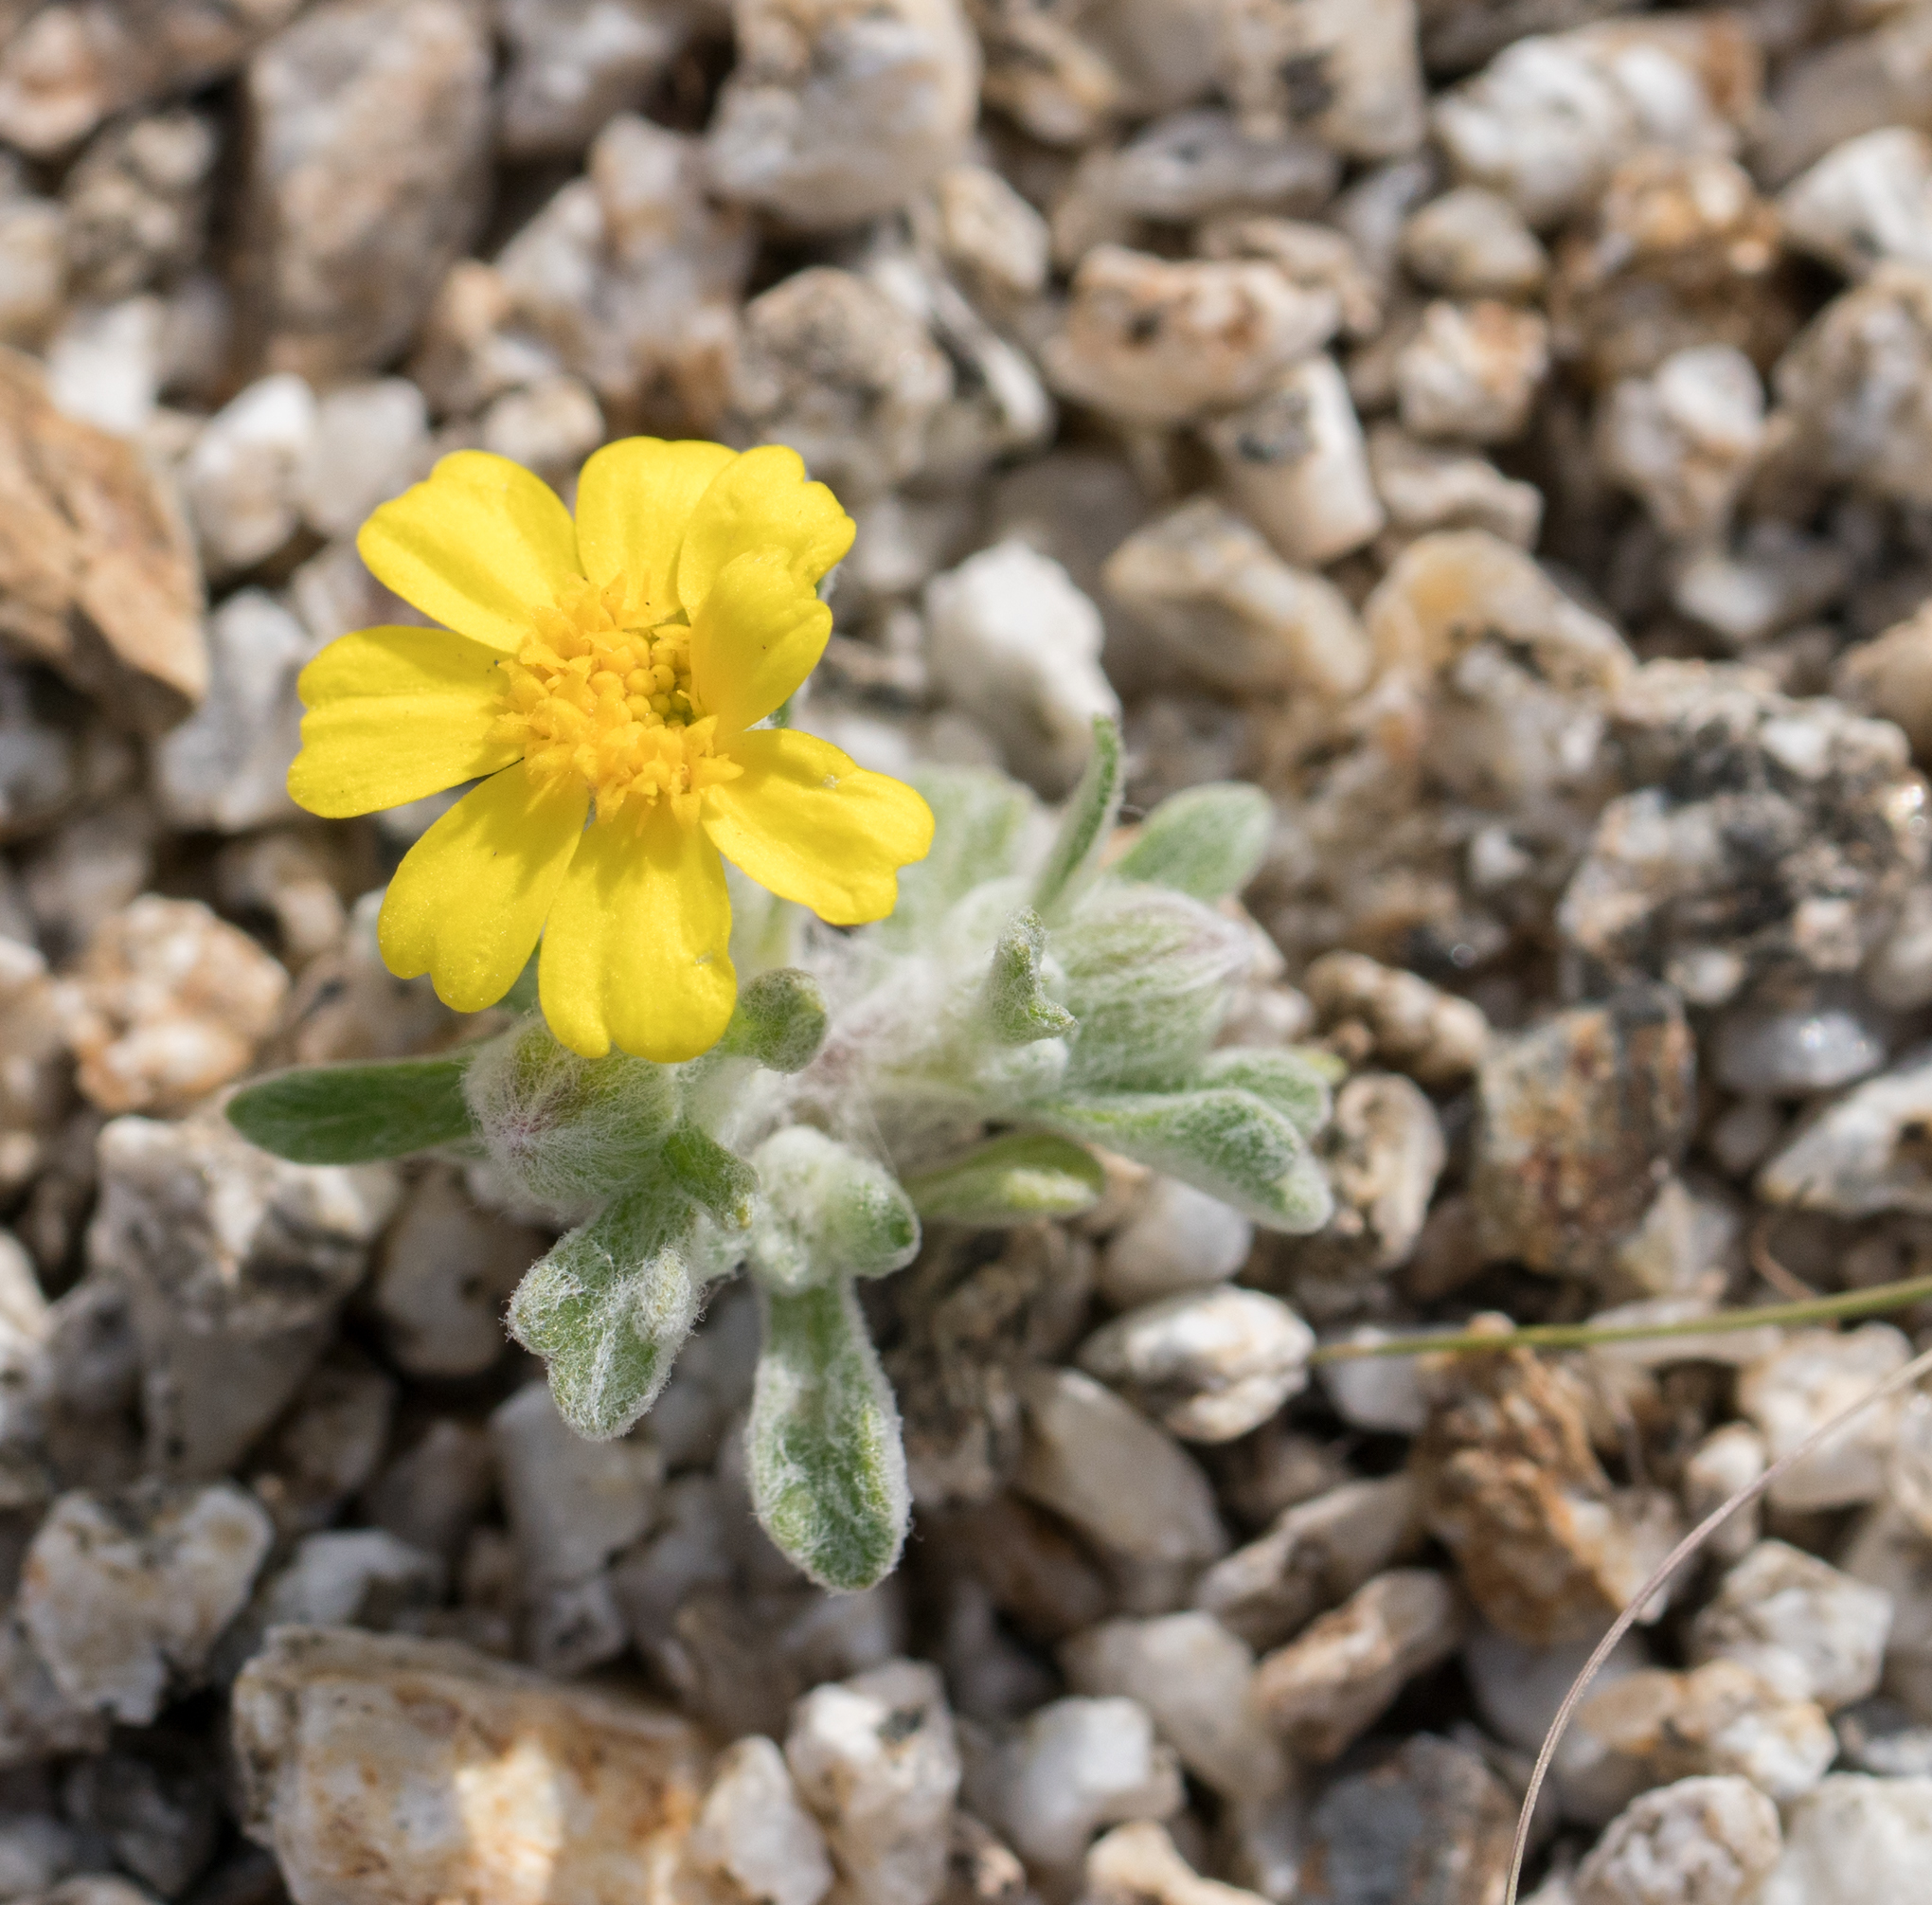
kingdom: Plantae
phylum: Tracheophyta
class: Magnoliopsida
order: Asterales
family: Asteraceae
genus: Eriophyllum
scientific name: Eriophyllum wallacei
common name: Wallace's woolly daisy
